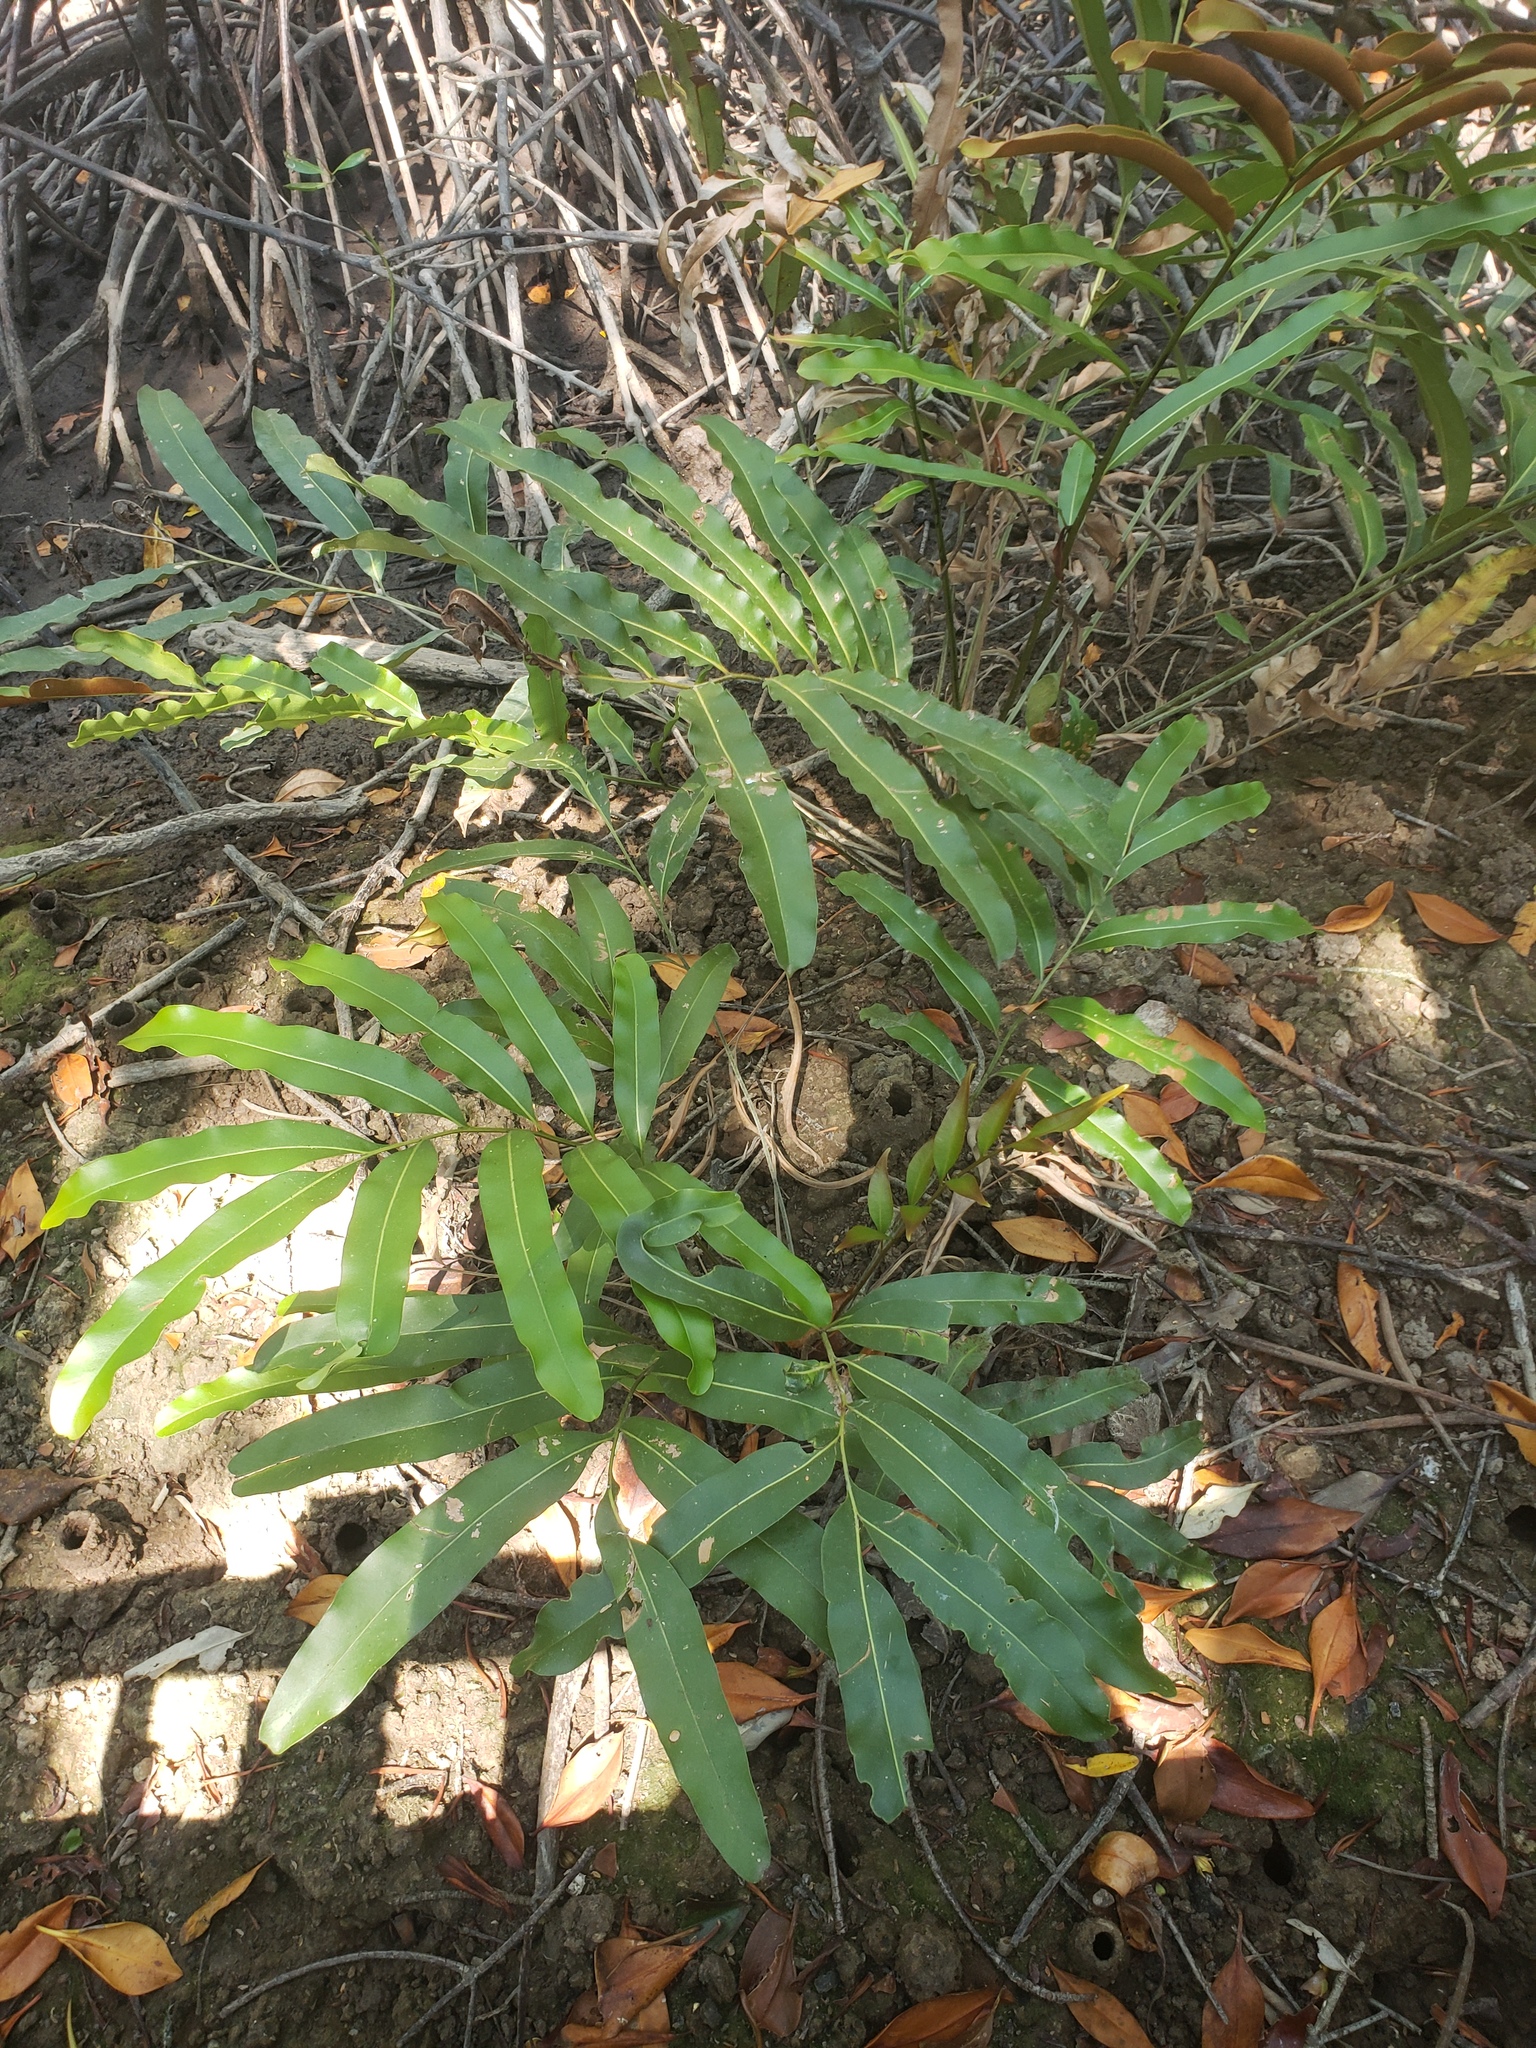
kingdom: Plantae
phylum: Tracheophyta
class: Polypodiopsida
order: Polypodiales
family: Pteridaceae
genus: Acrostichum
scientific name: Acrostichum aureum
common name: Leather fern
